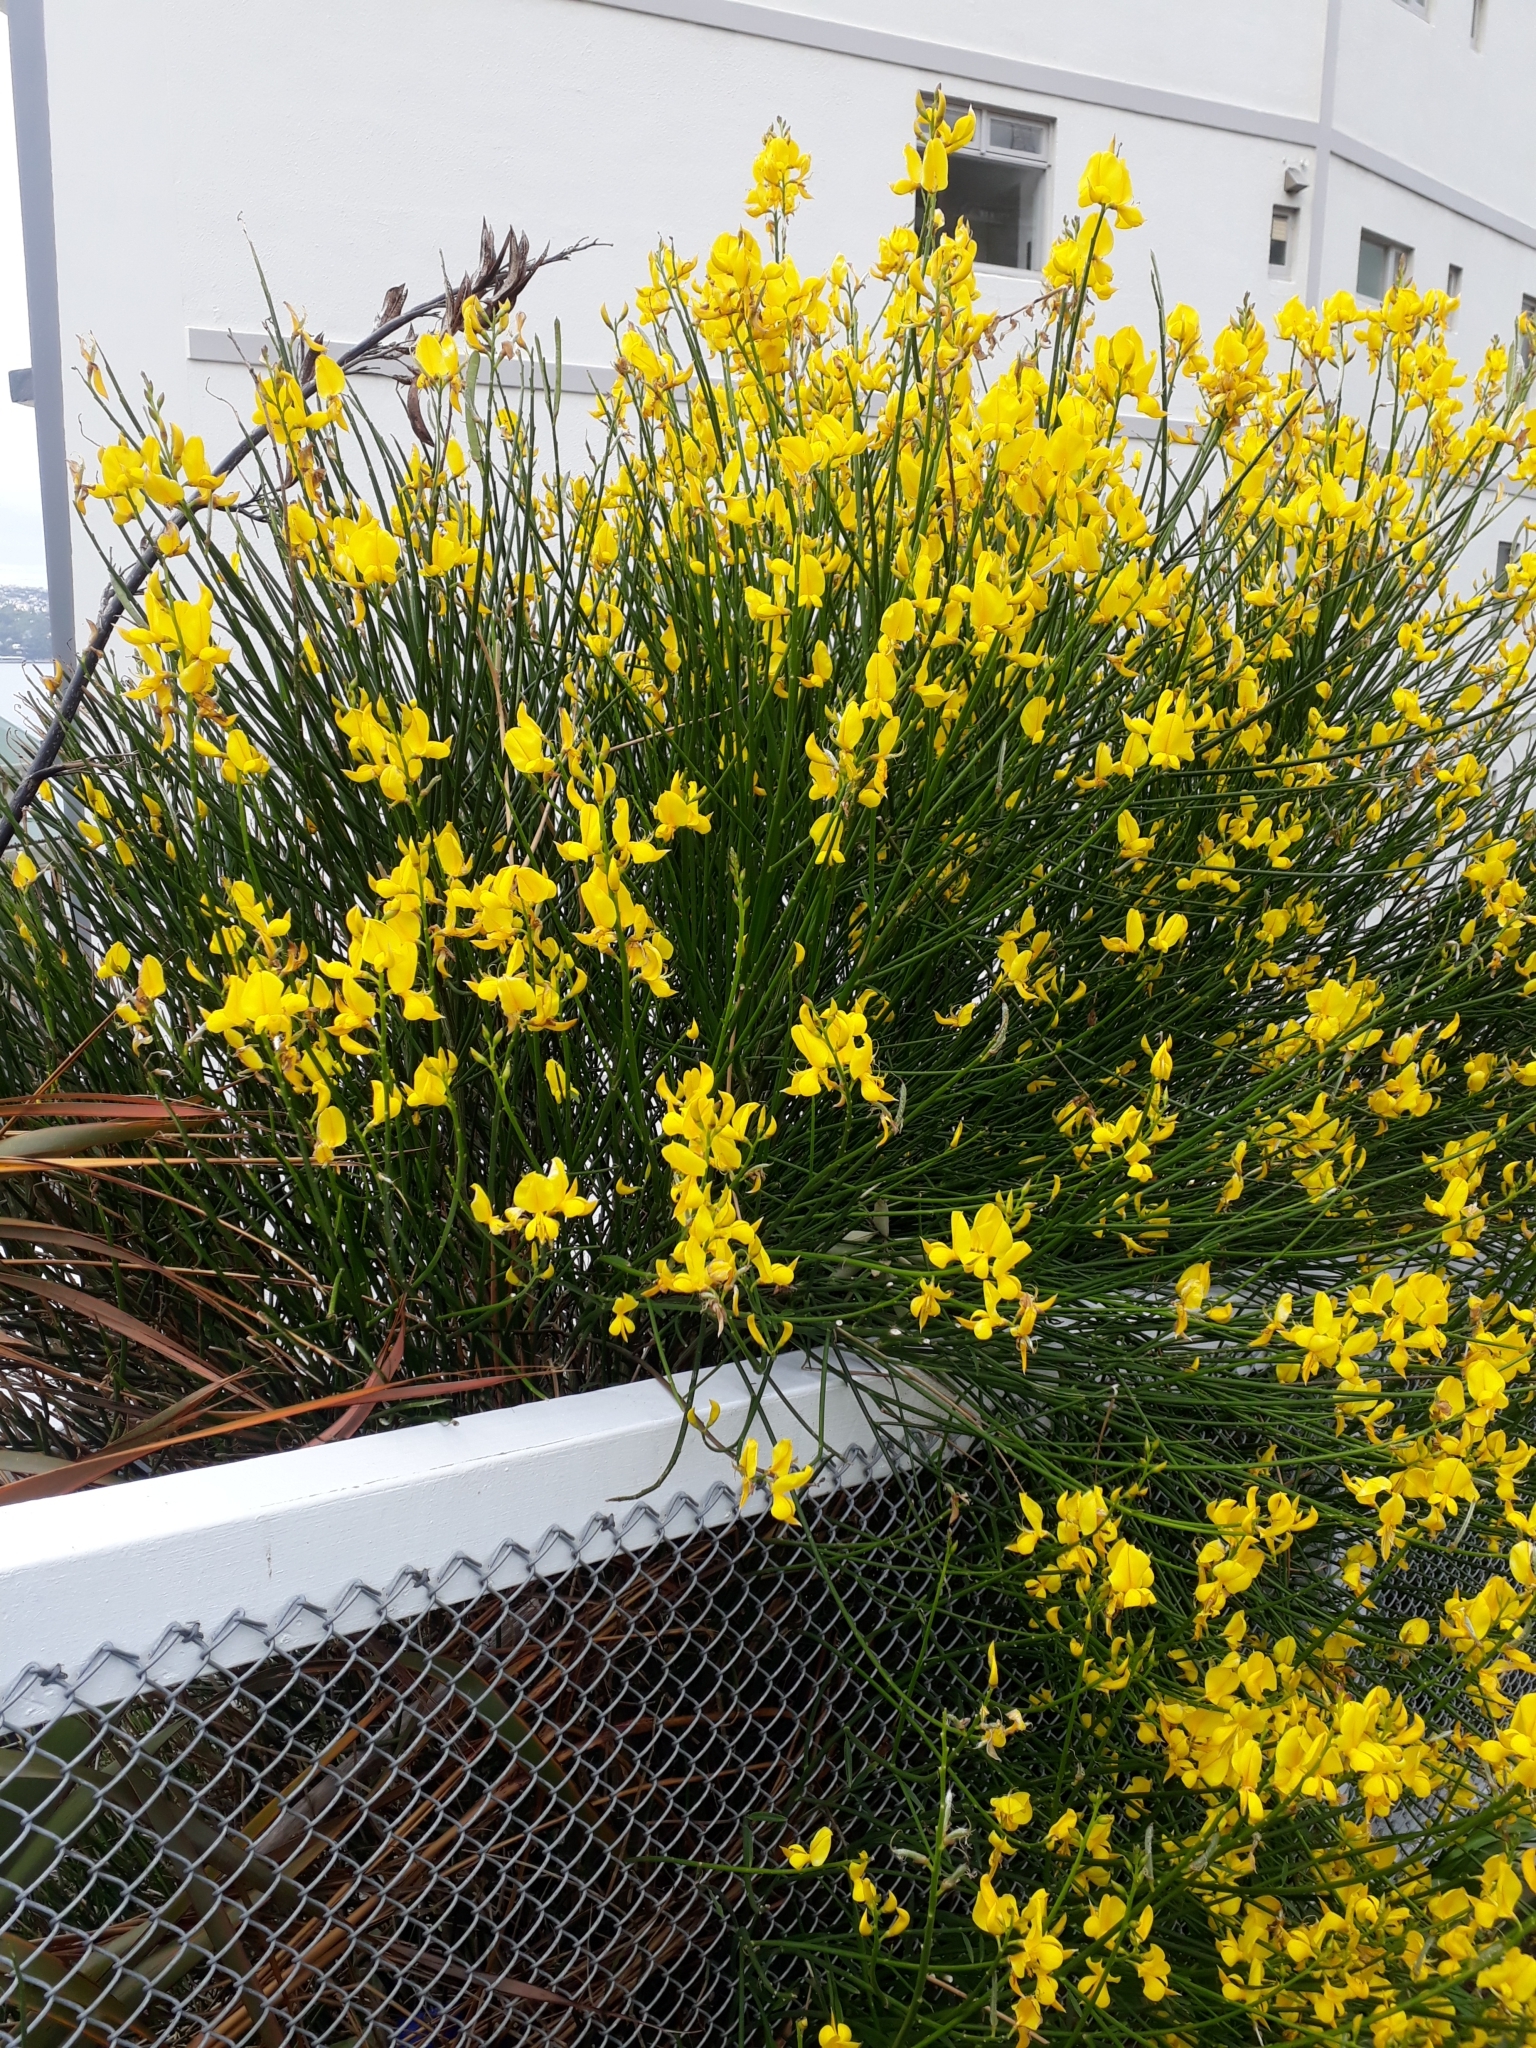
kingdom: Plantae
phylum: Tracheophyta
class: Magnoliopsida
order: Fabales
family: Fabaceae
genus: Spartium
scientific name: Spartium junceum
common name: Spanish broom
